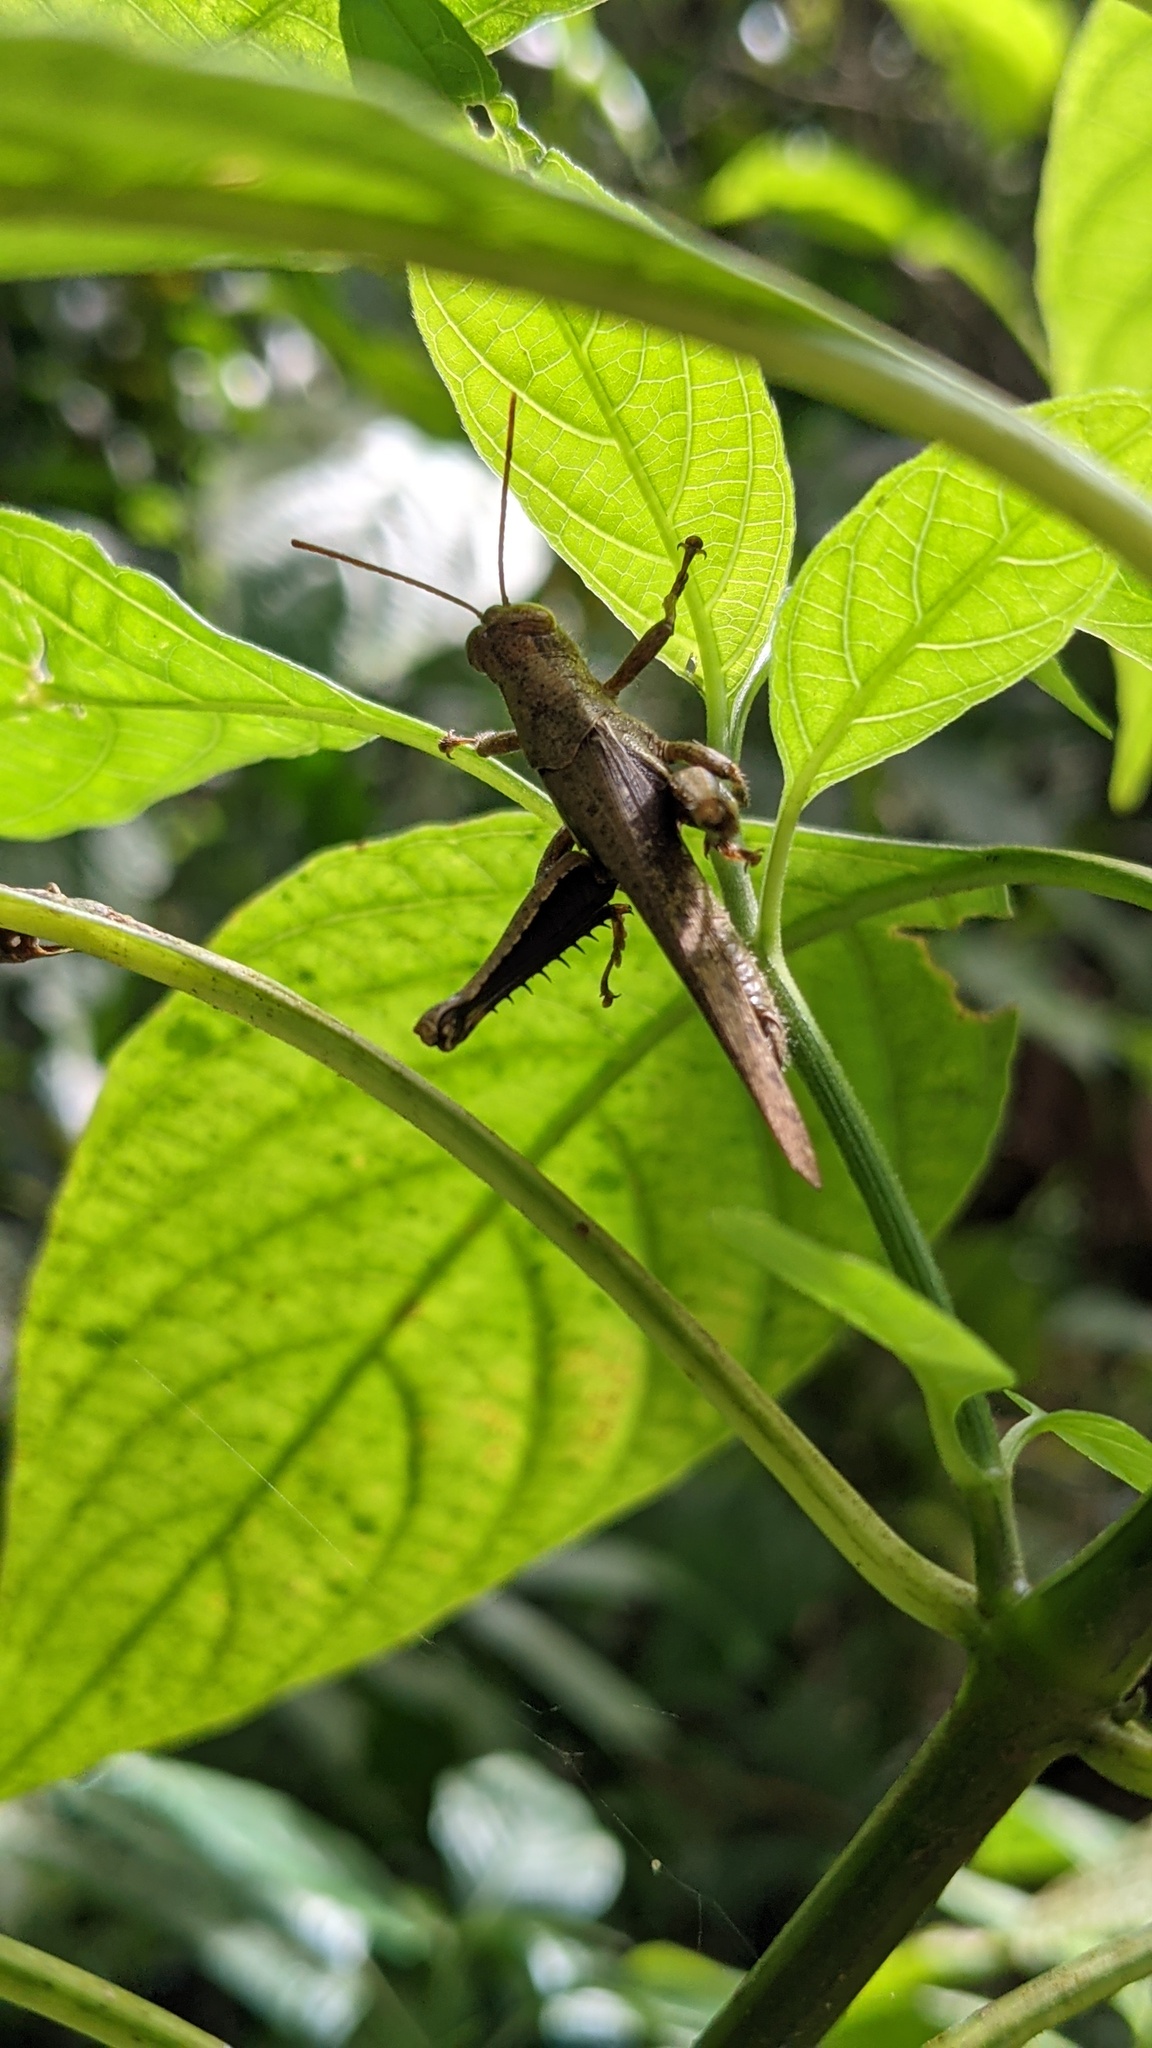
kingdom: Animalia
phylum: Arthropoda
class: Insecta
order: Orthoptera
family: Acrididae
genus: Abracris
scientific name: Abracris flavolineata
